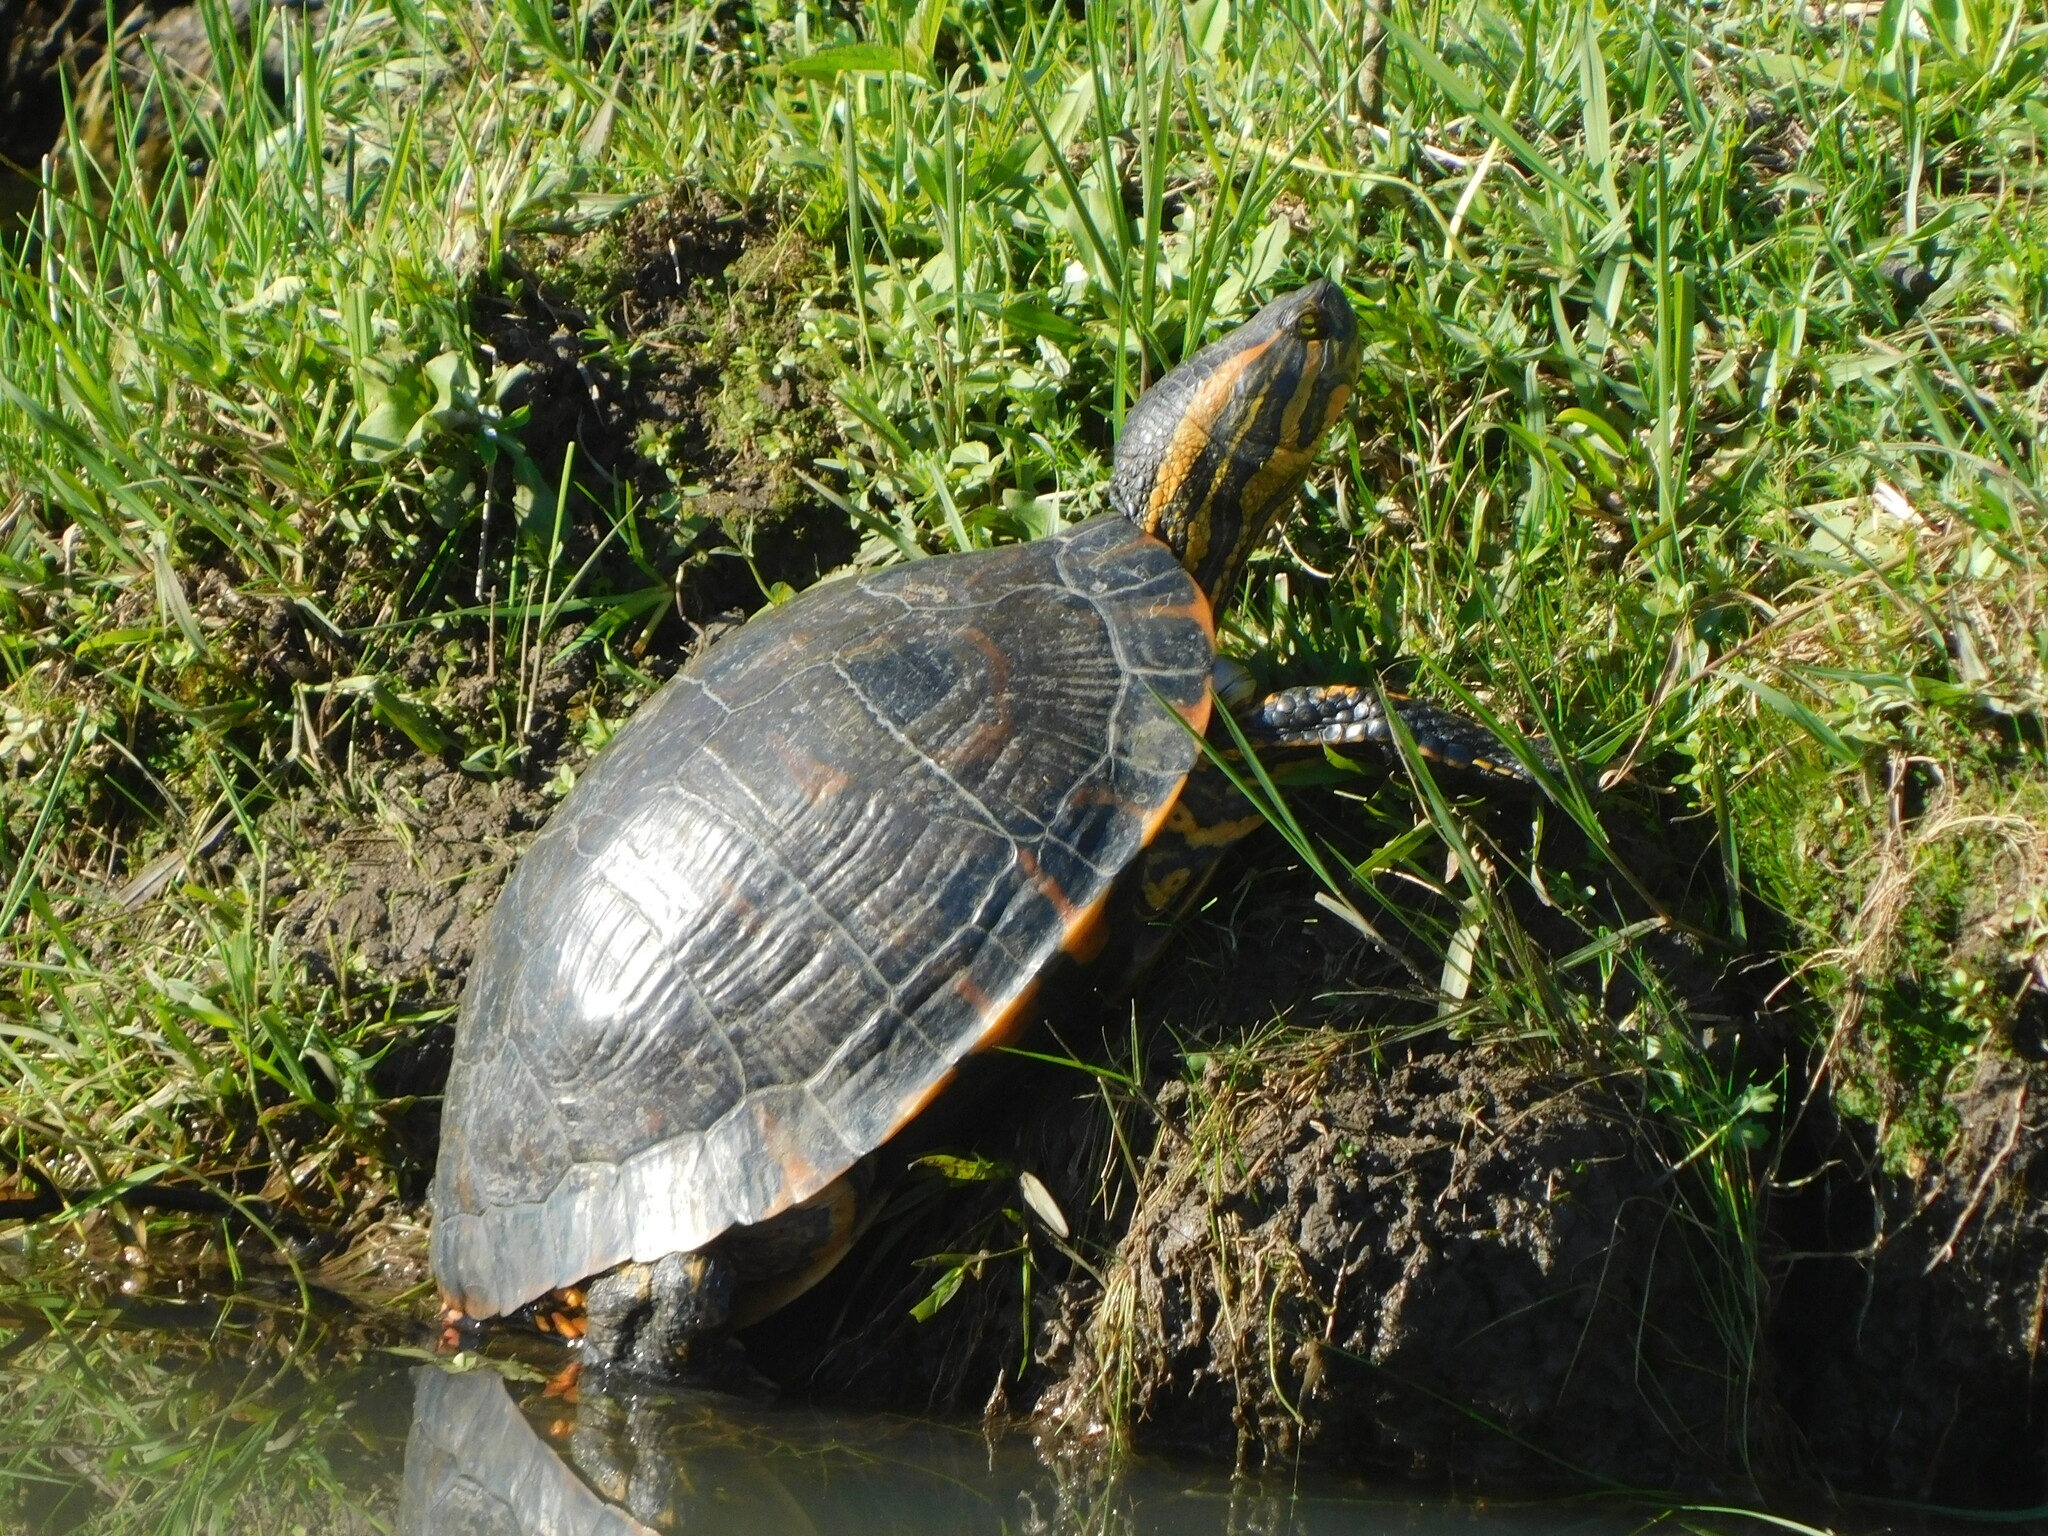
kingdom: Animalia
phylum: Chordata
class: Testudines
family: Emydidae
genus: Trachemys
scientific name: Trachemys dorbigni
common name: Black-bellied slider
